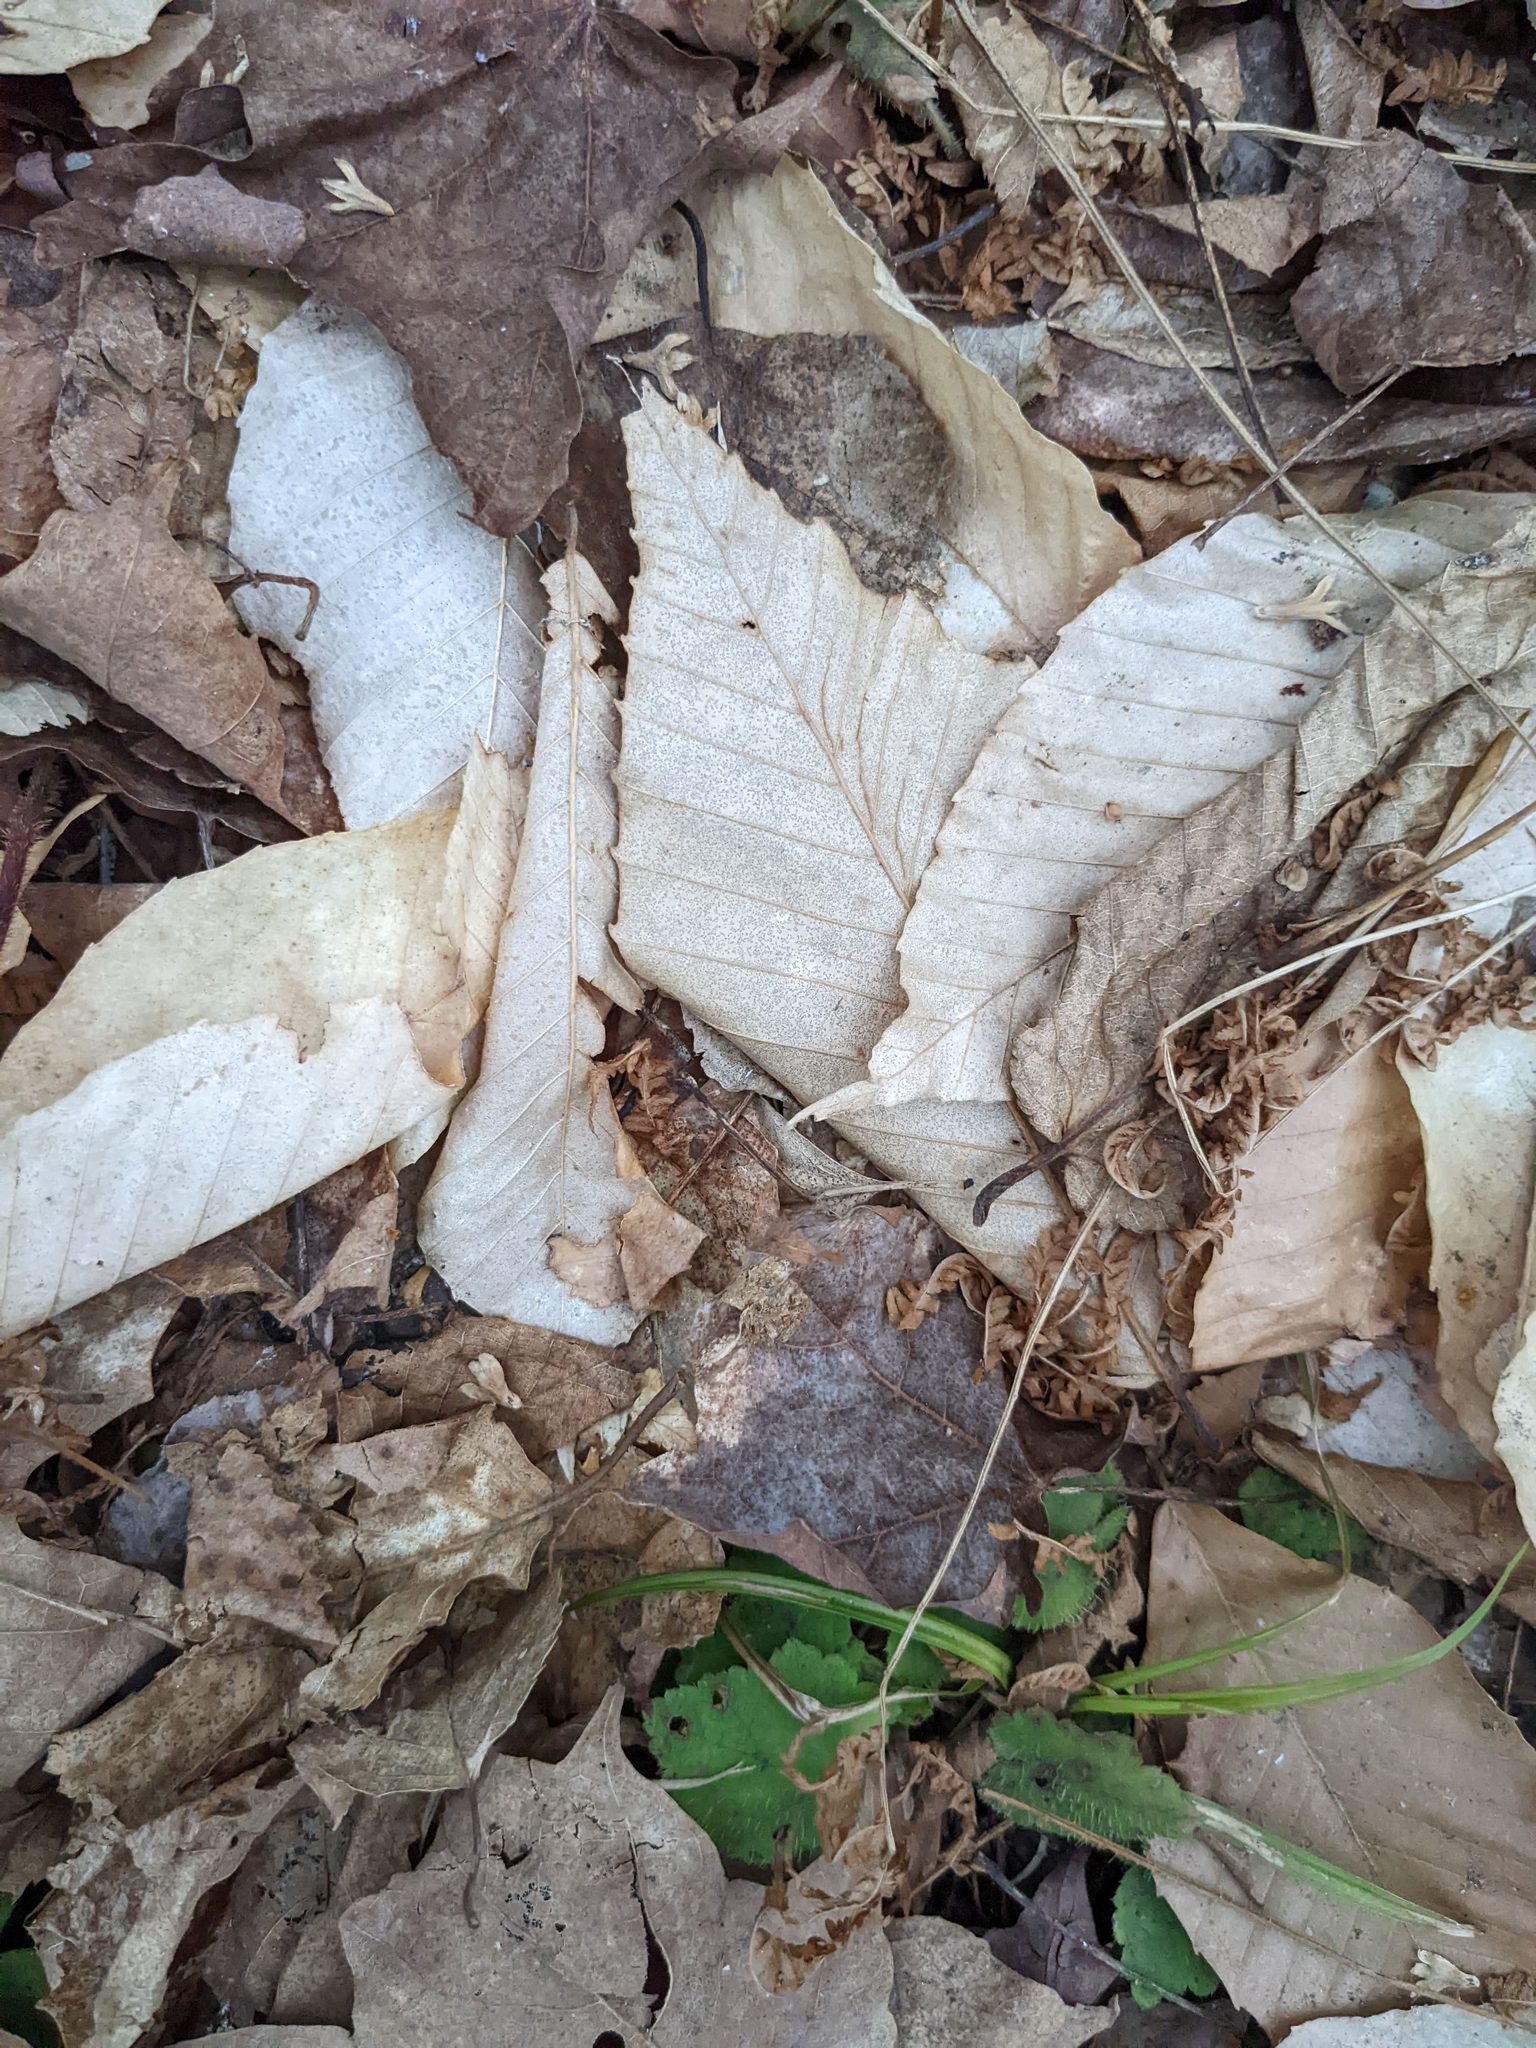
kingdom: Plantae
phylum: Tracheophyta
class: Magnoliopsida
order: Fagales
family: Fagaceae
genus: Fagus
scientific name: Fagus grandifolia
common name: American beech
